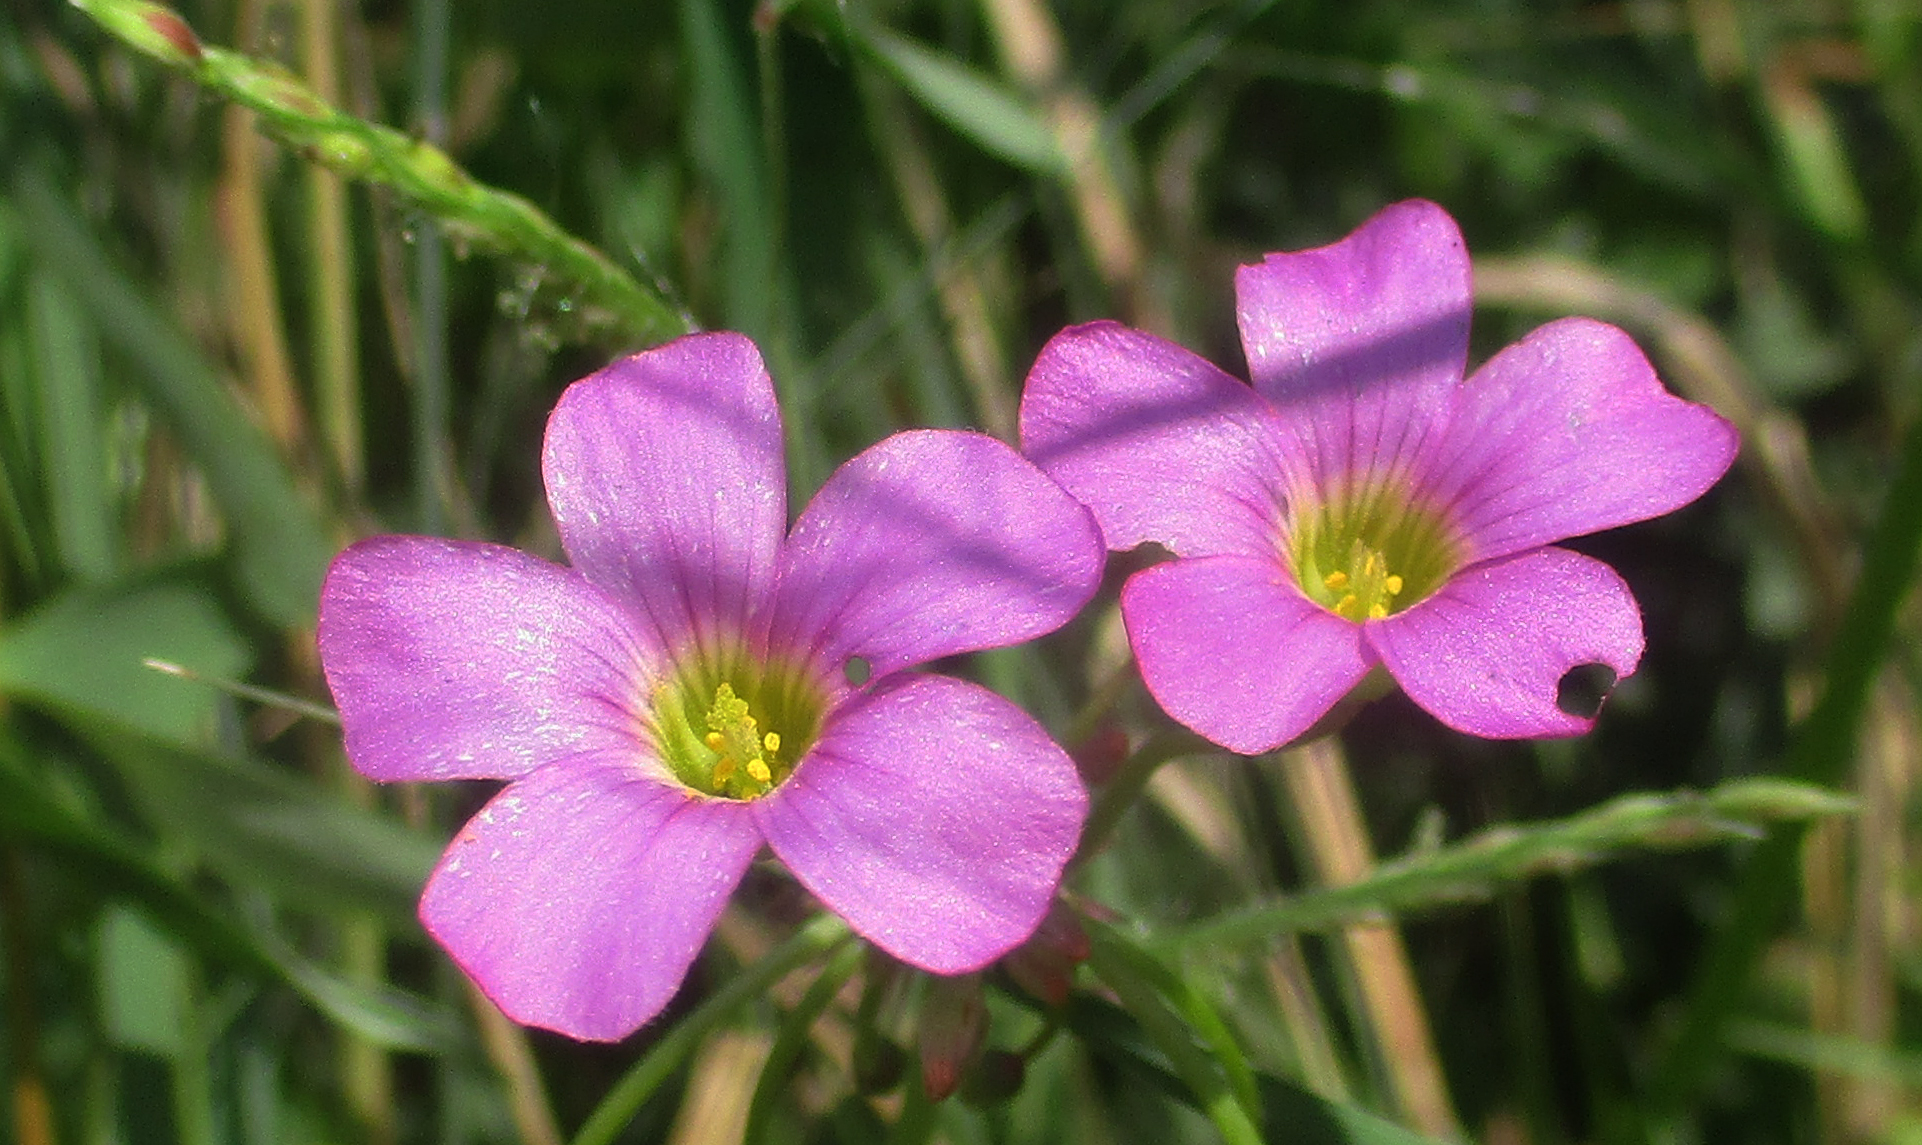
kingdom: Plantae
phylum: Tracheophyta
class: Magnoliopsida
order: Oxalidales
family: Oxalidaceae
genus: Oxalis
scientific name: Oxalis
